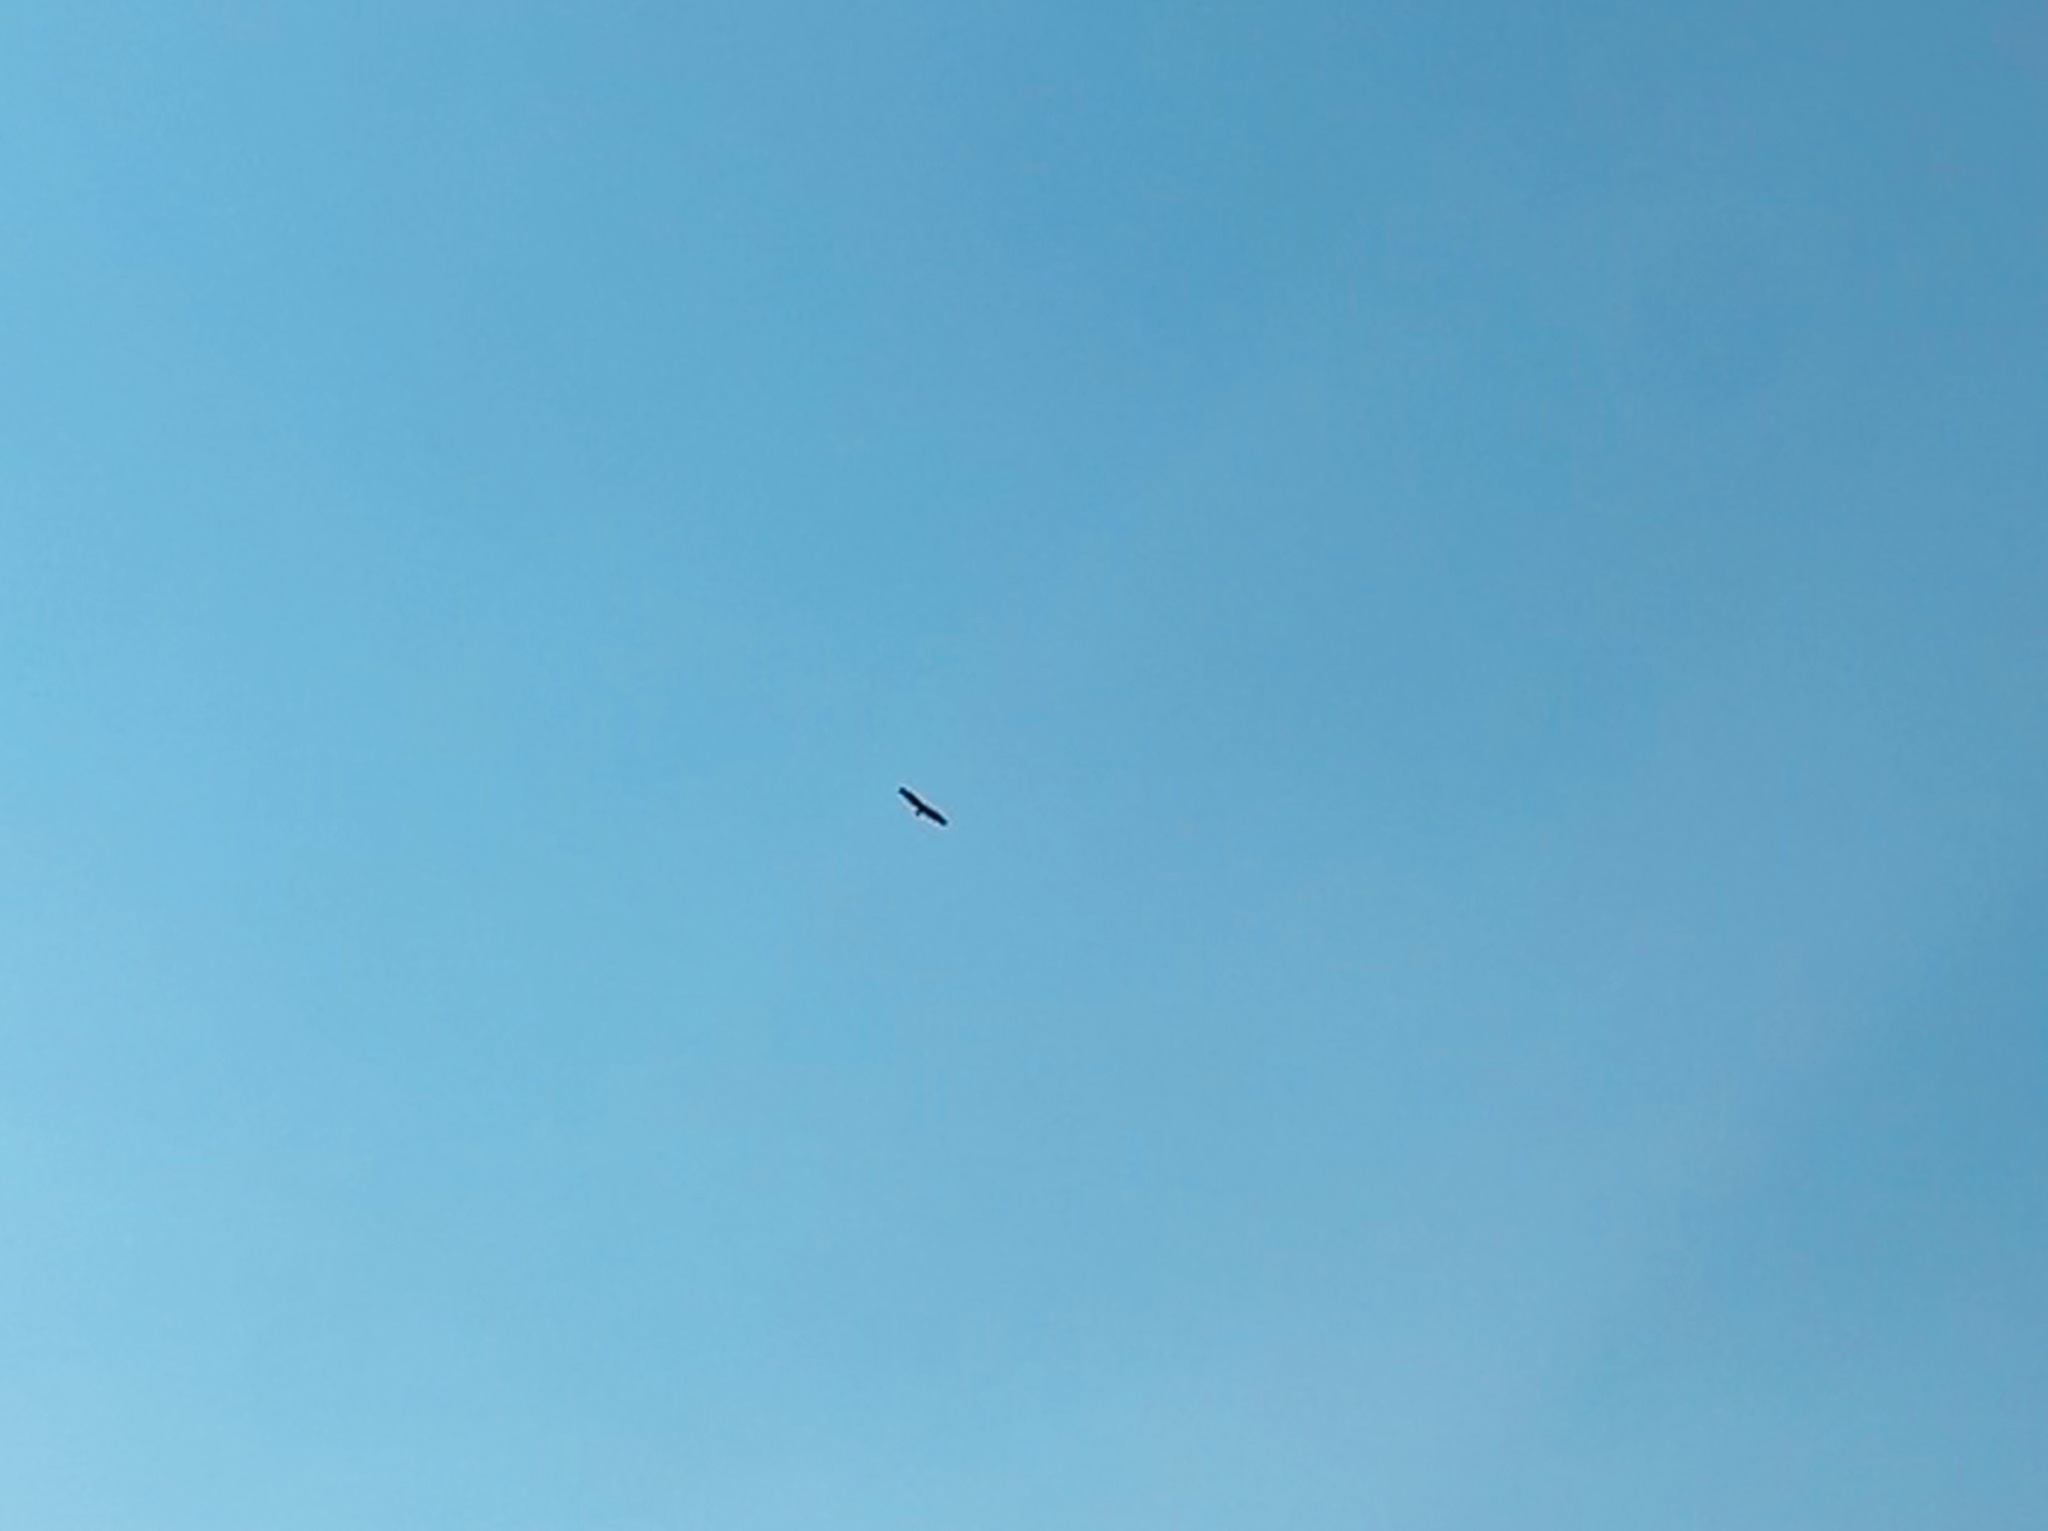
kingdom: Animalia
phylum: Chordata
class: Aves
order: Accipitriformes
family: Accipitridae
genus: Haliaeetus
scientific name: Haliaeetus leucocephalus
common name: Bald eagle
